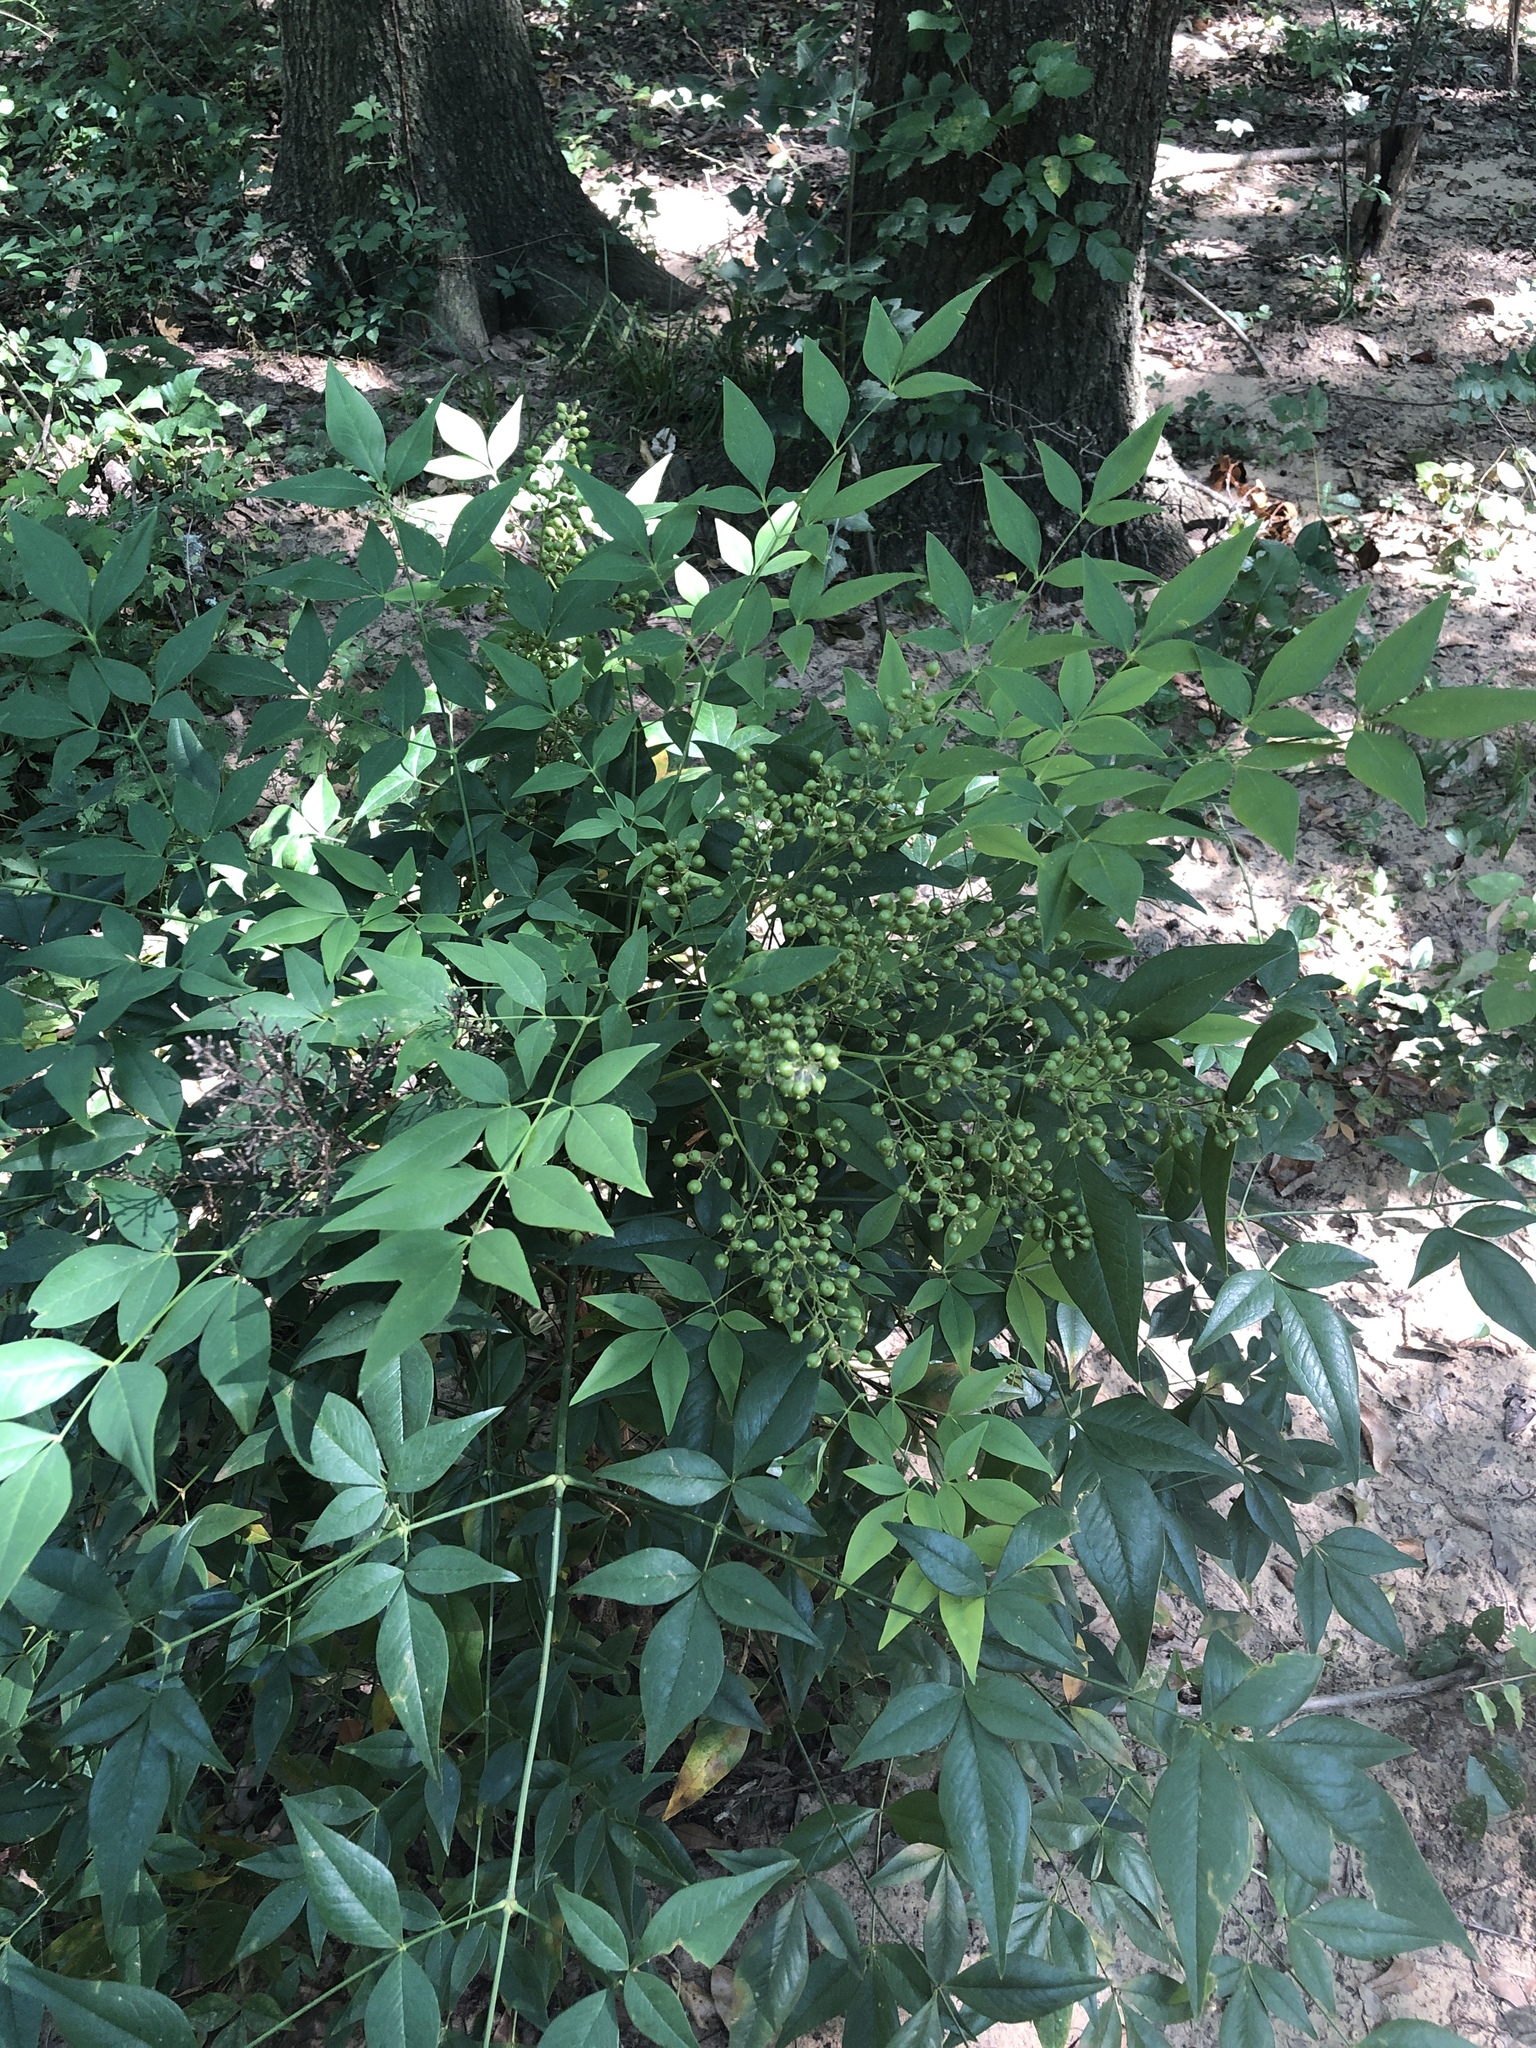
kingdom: Plantae
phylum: Tracheophyta
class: Magnoliopsida
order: Ranunculales
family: Berberidaceae
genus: Nandina
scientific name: Nandina domestica
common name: Sacred bamboo
